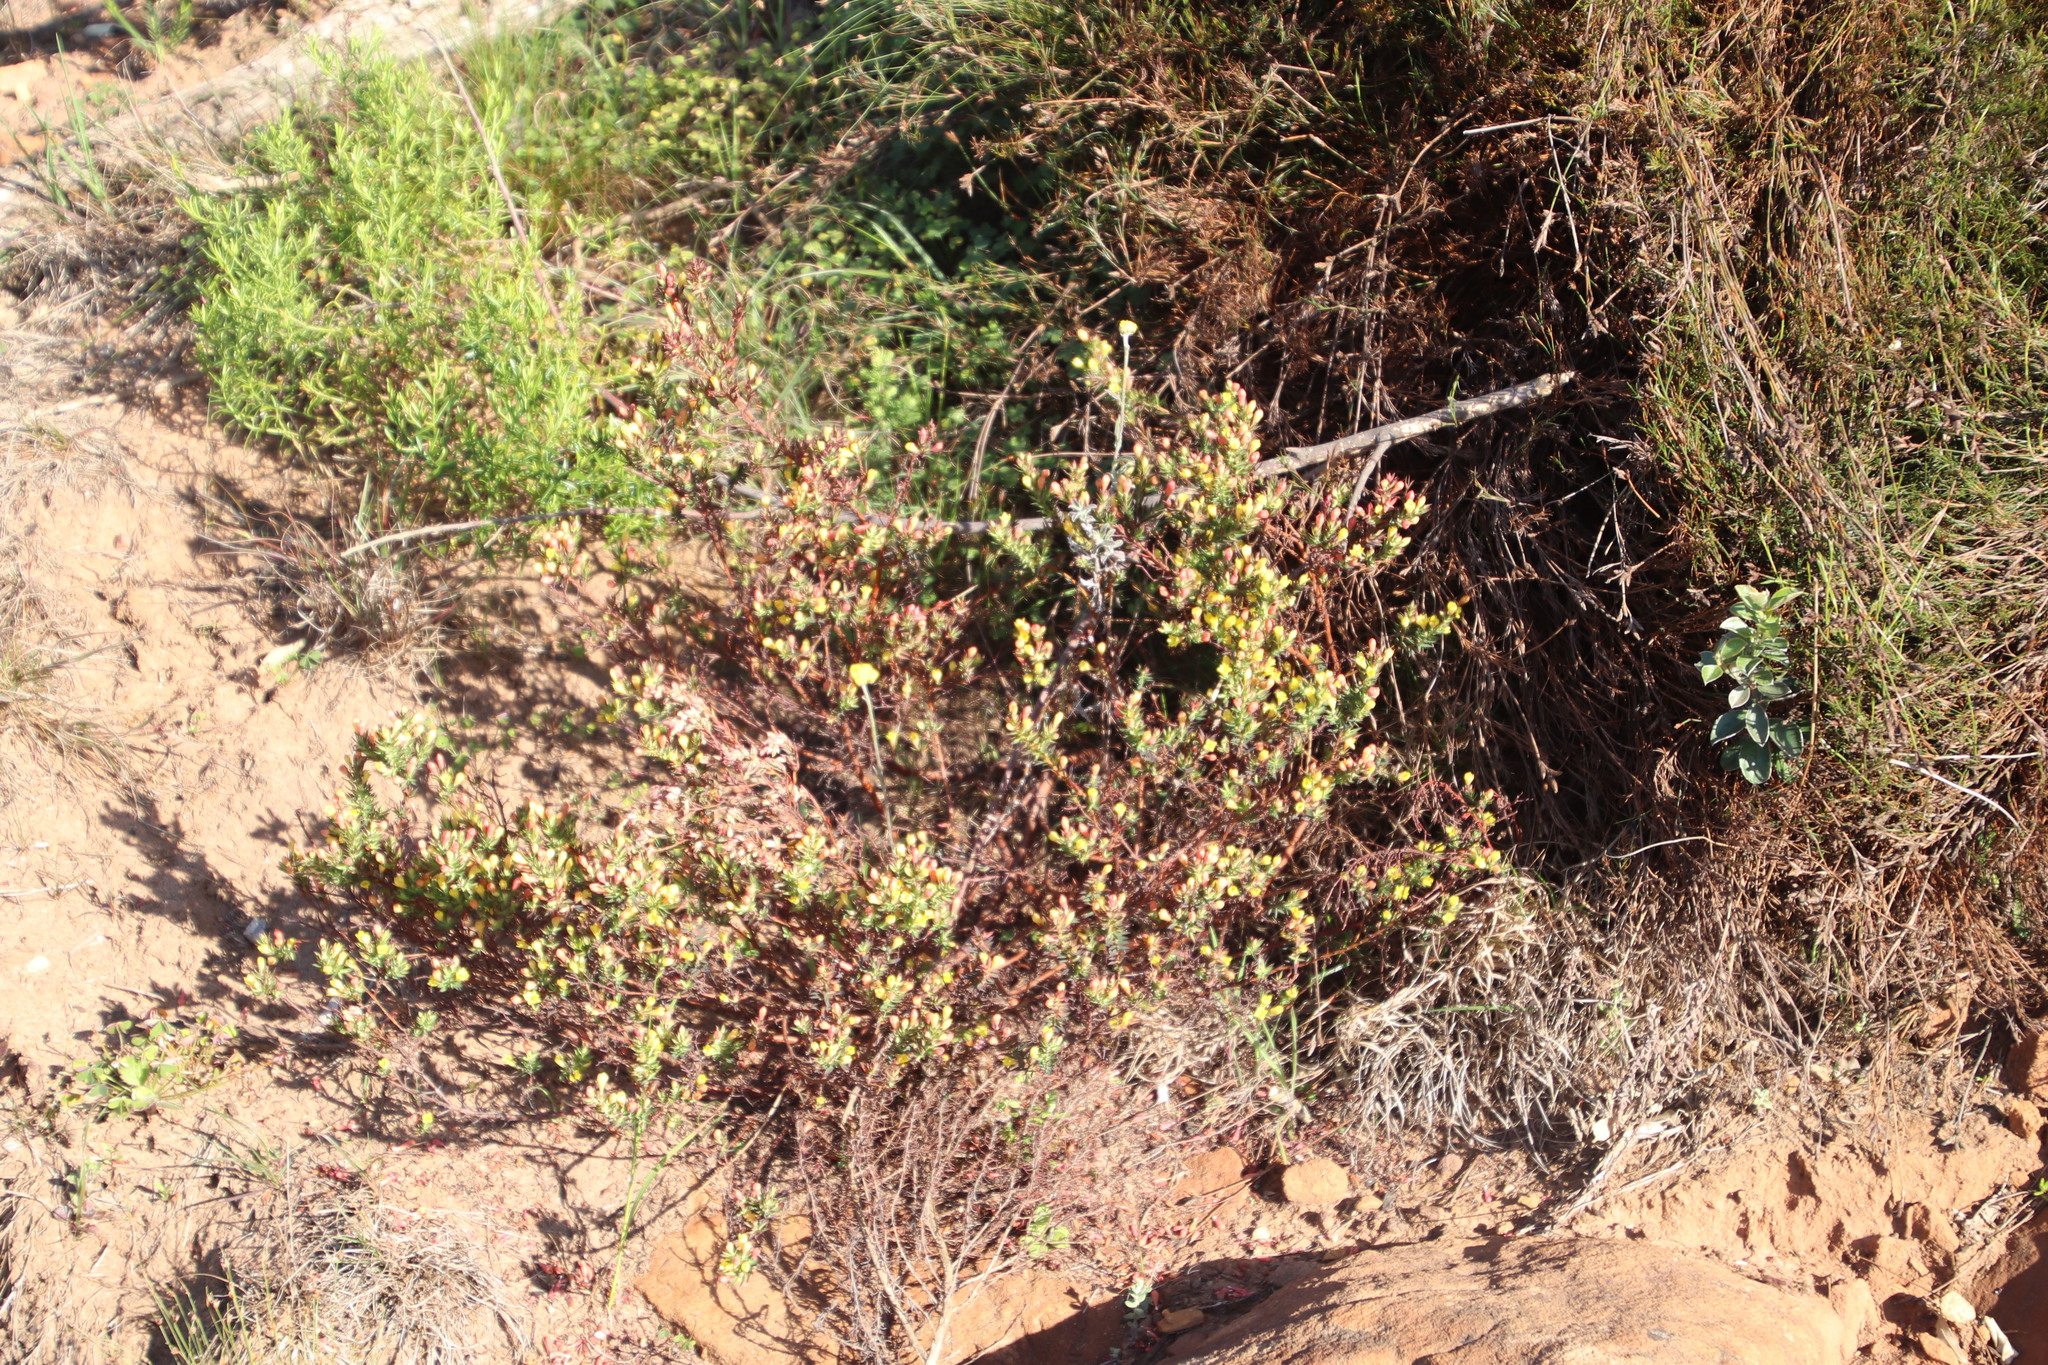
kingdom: Plantae
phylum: Tracheophyta
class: Magnoliopsida
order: Malvales
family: Thymelaeaceae
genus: Gnidia
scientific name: Gnidia juniperifolia
